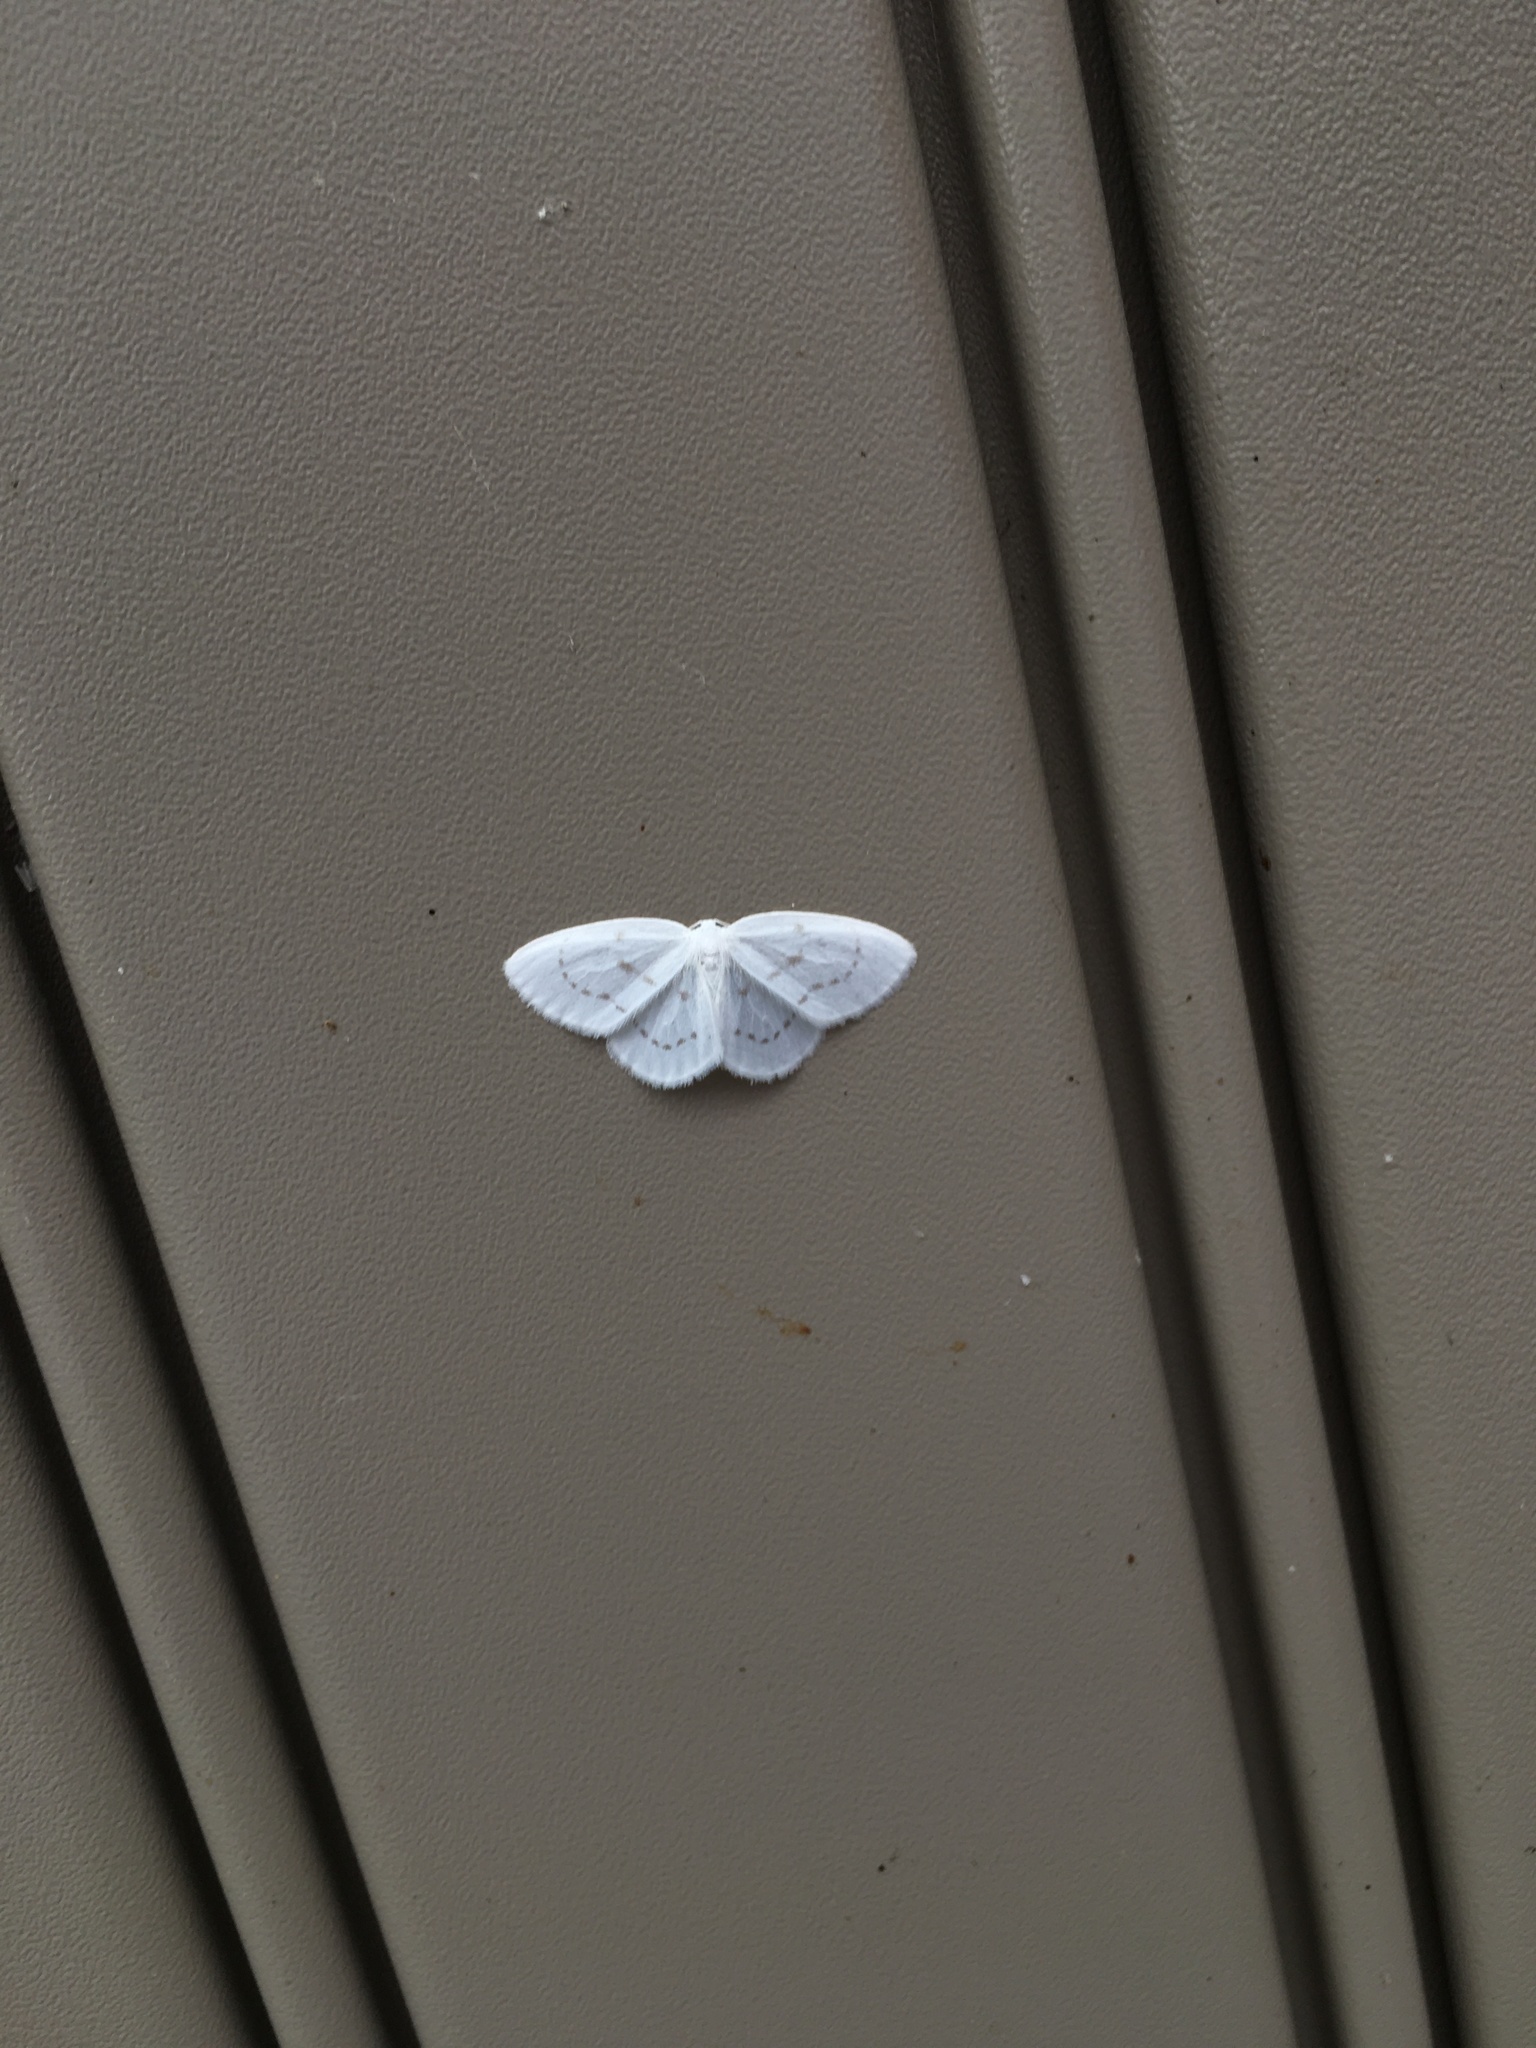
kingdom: Animalia
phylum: Arthropoda
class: Insecta
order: Lepidoptera
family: Drepanidae
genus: Eudeilinia
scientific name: Eudeilinia herminiata
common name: Northern eudeilinea moth
